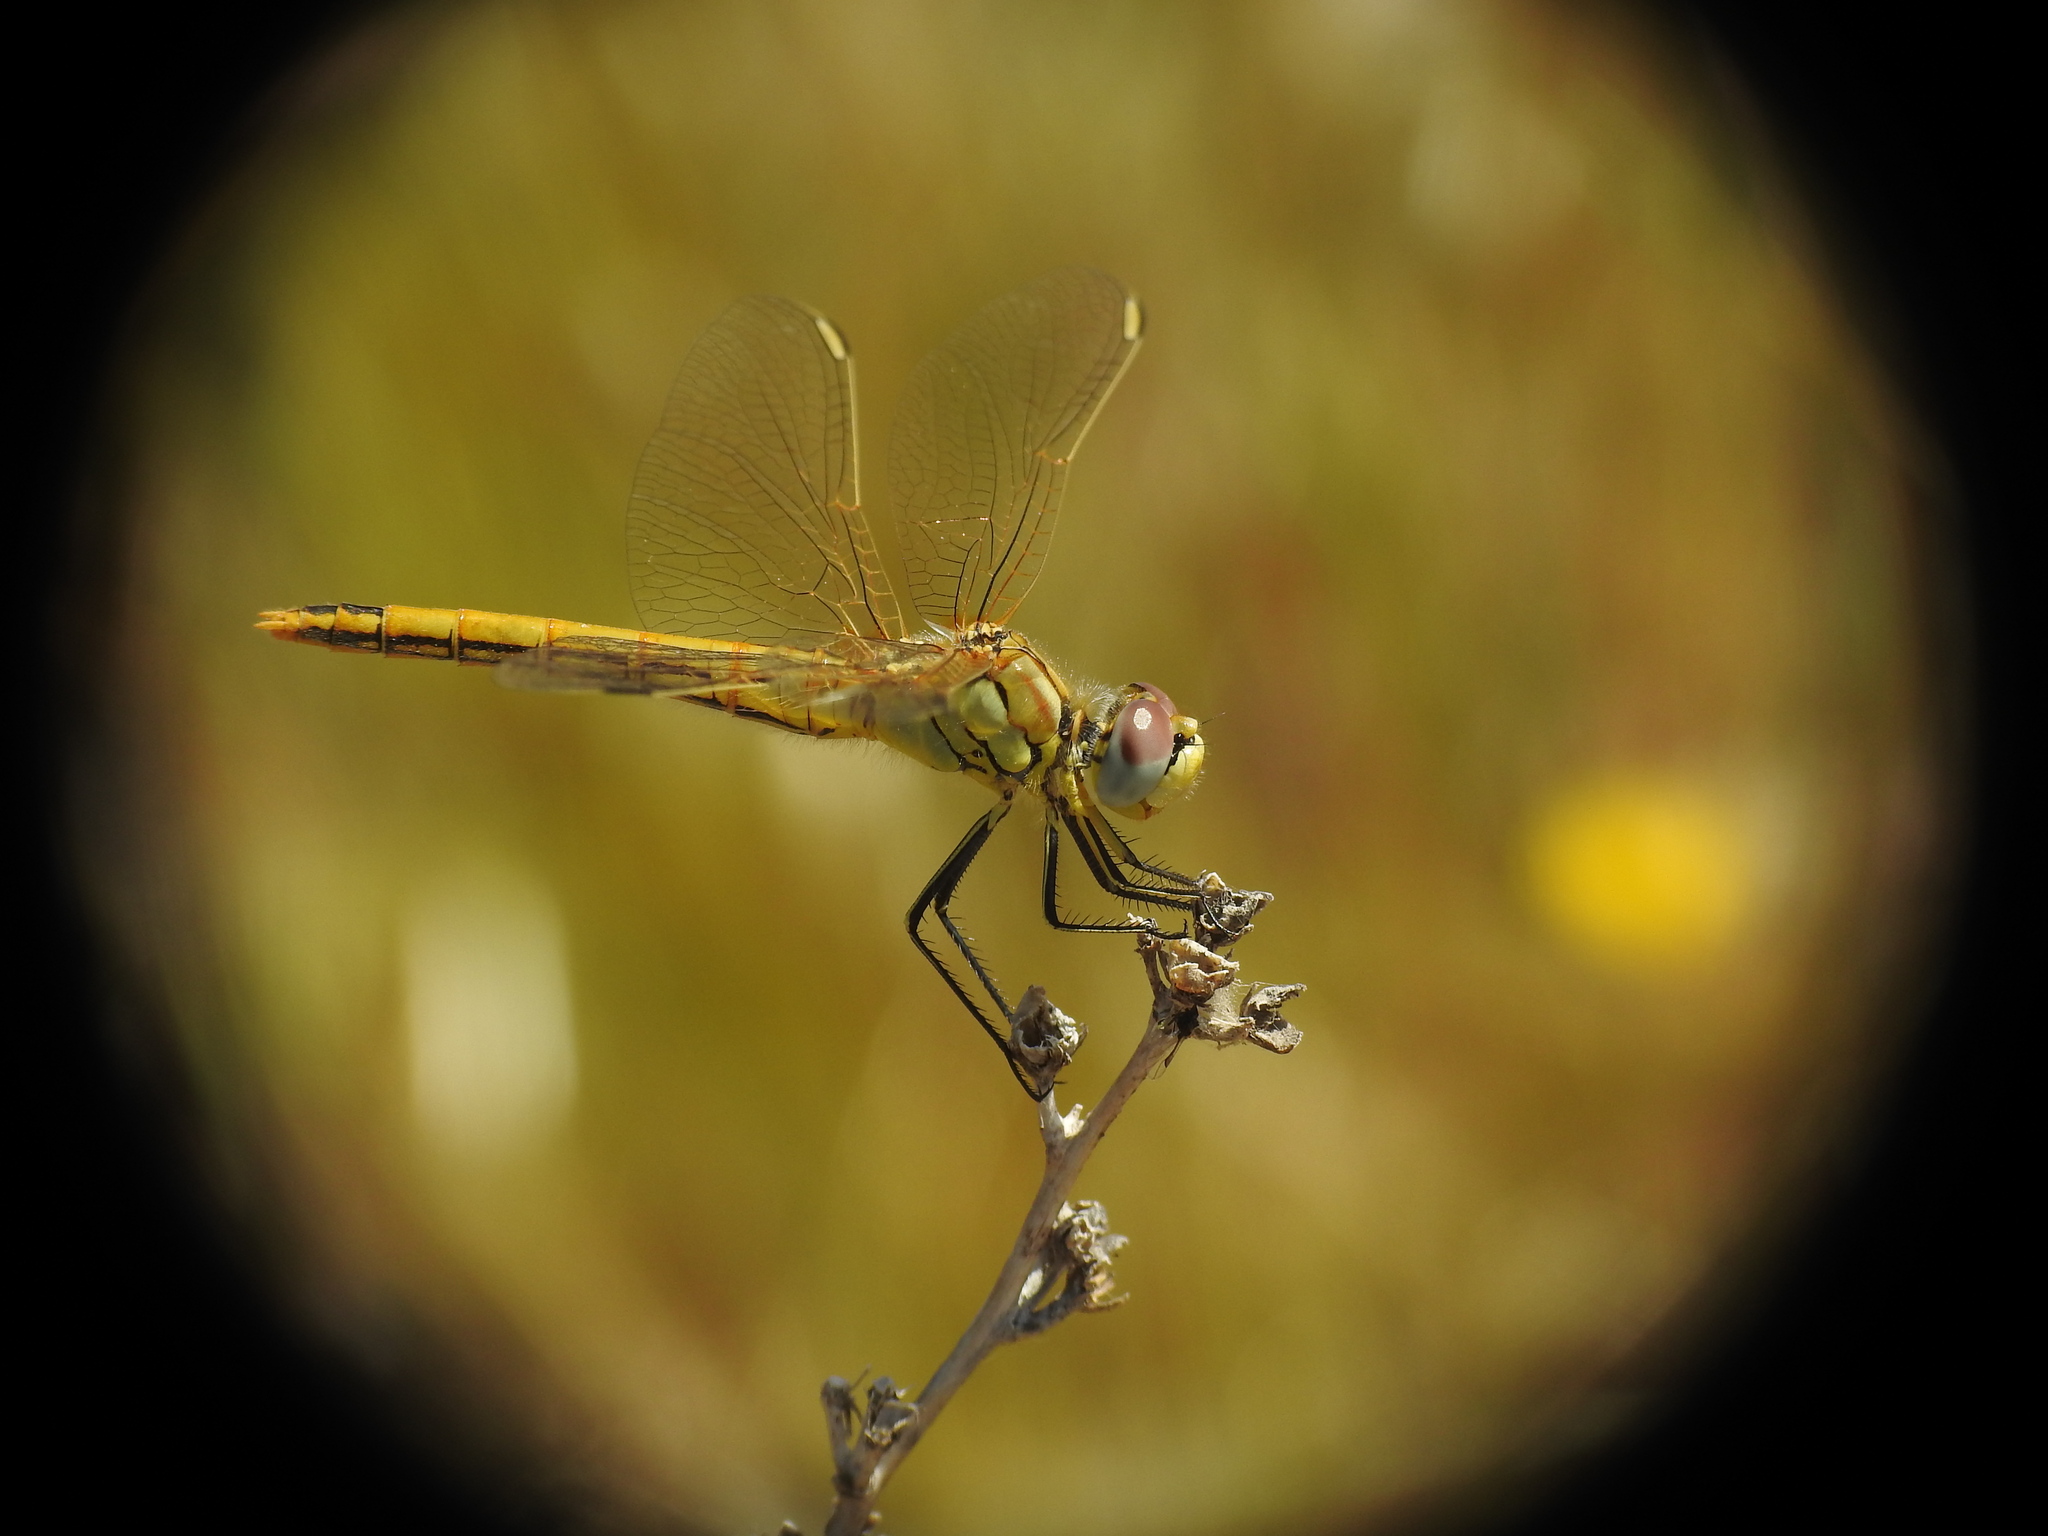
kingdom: Animalia
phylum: Arthropoda
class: Insecta
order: Odonata
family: Libellulidae
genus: Sympetrum
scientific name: Sympetrum fonscolombii
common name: Red-veined darter
